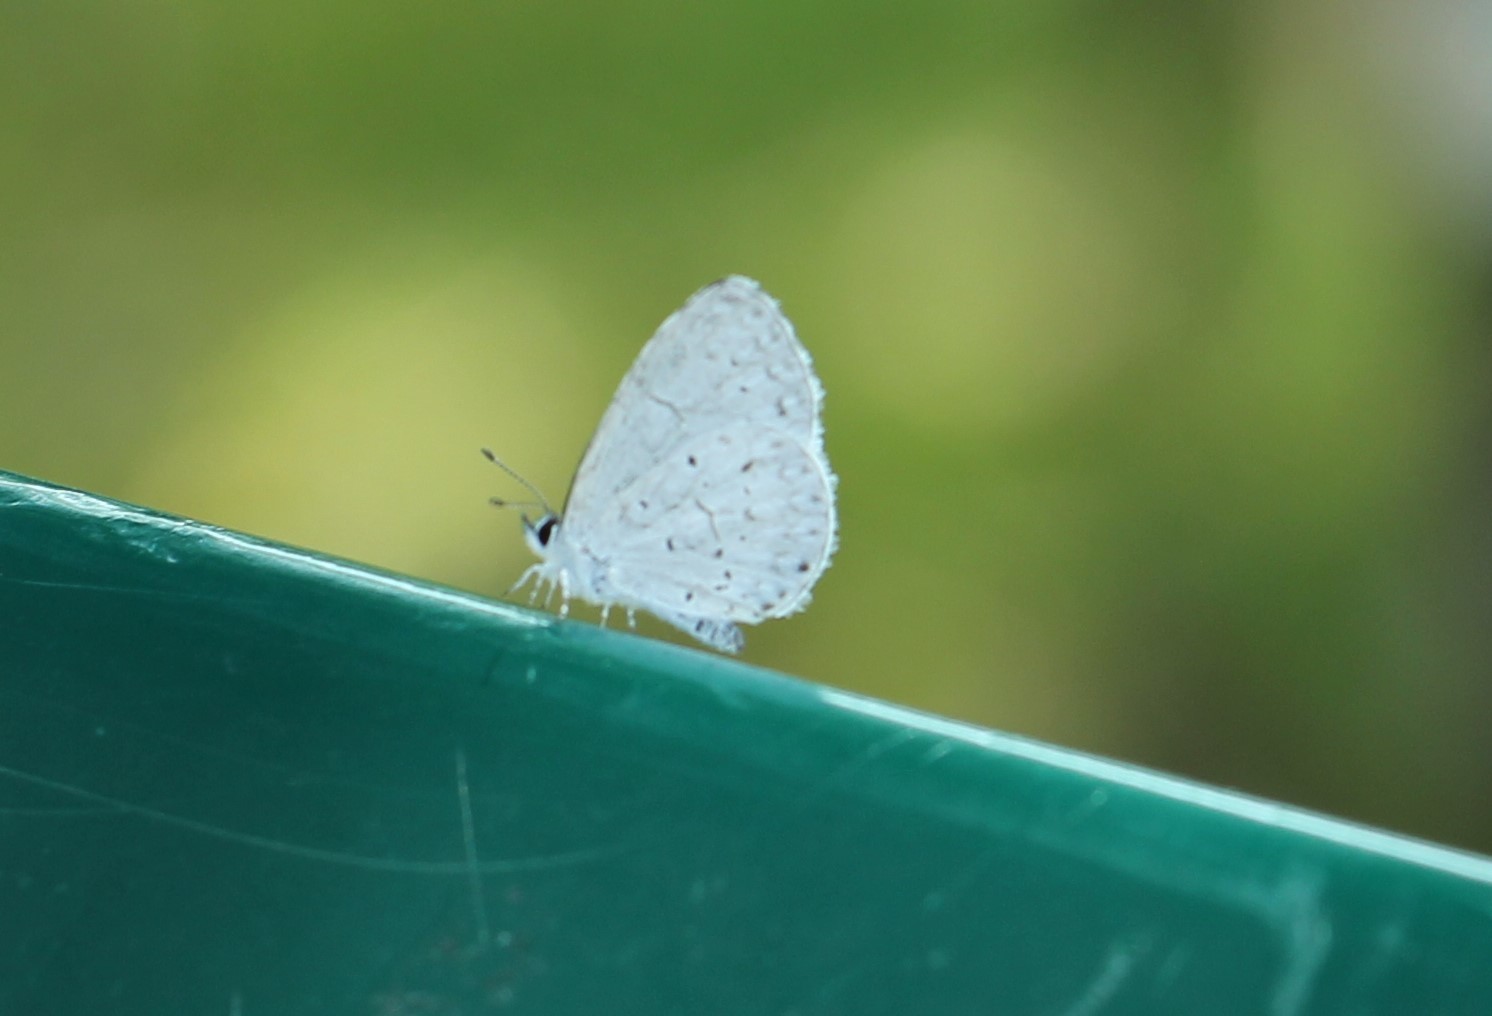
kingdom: Animalia
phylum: Arthropoda
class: Insecta
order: Lepidoptera
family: Lycaenidae
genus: Cyaniris
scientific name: Cyaniris neglecta
